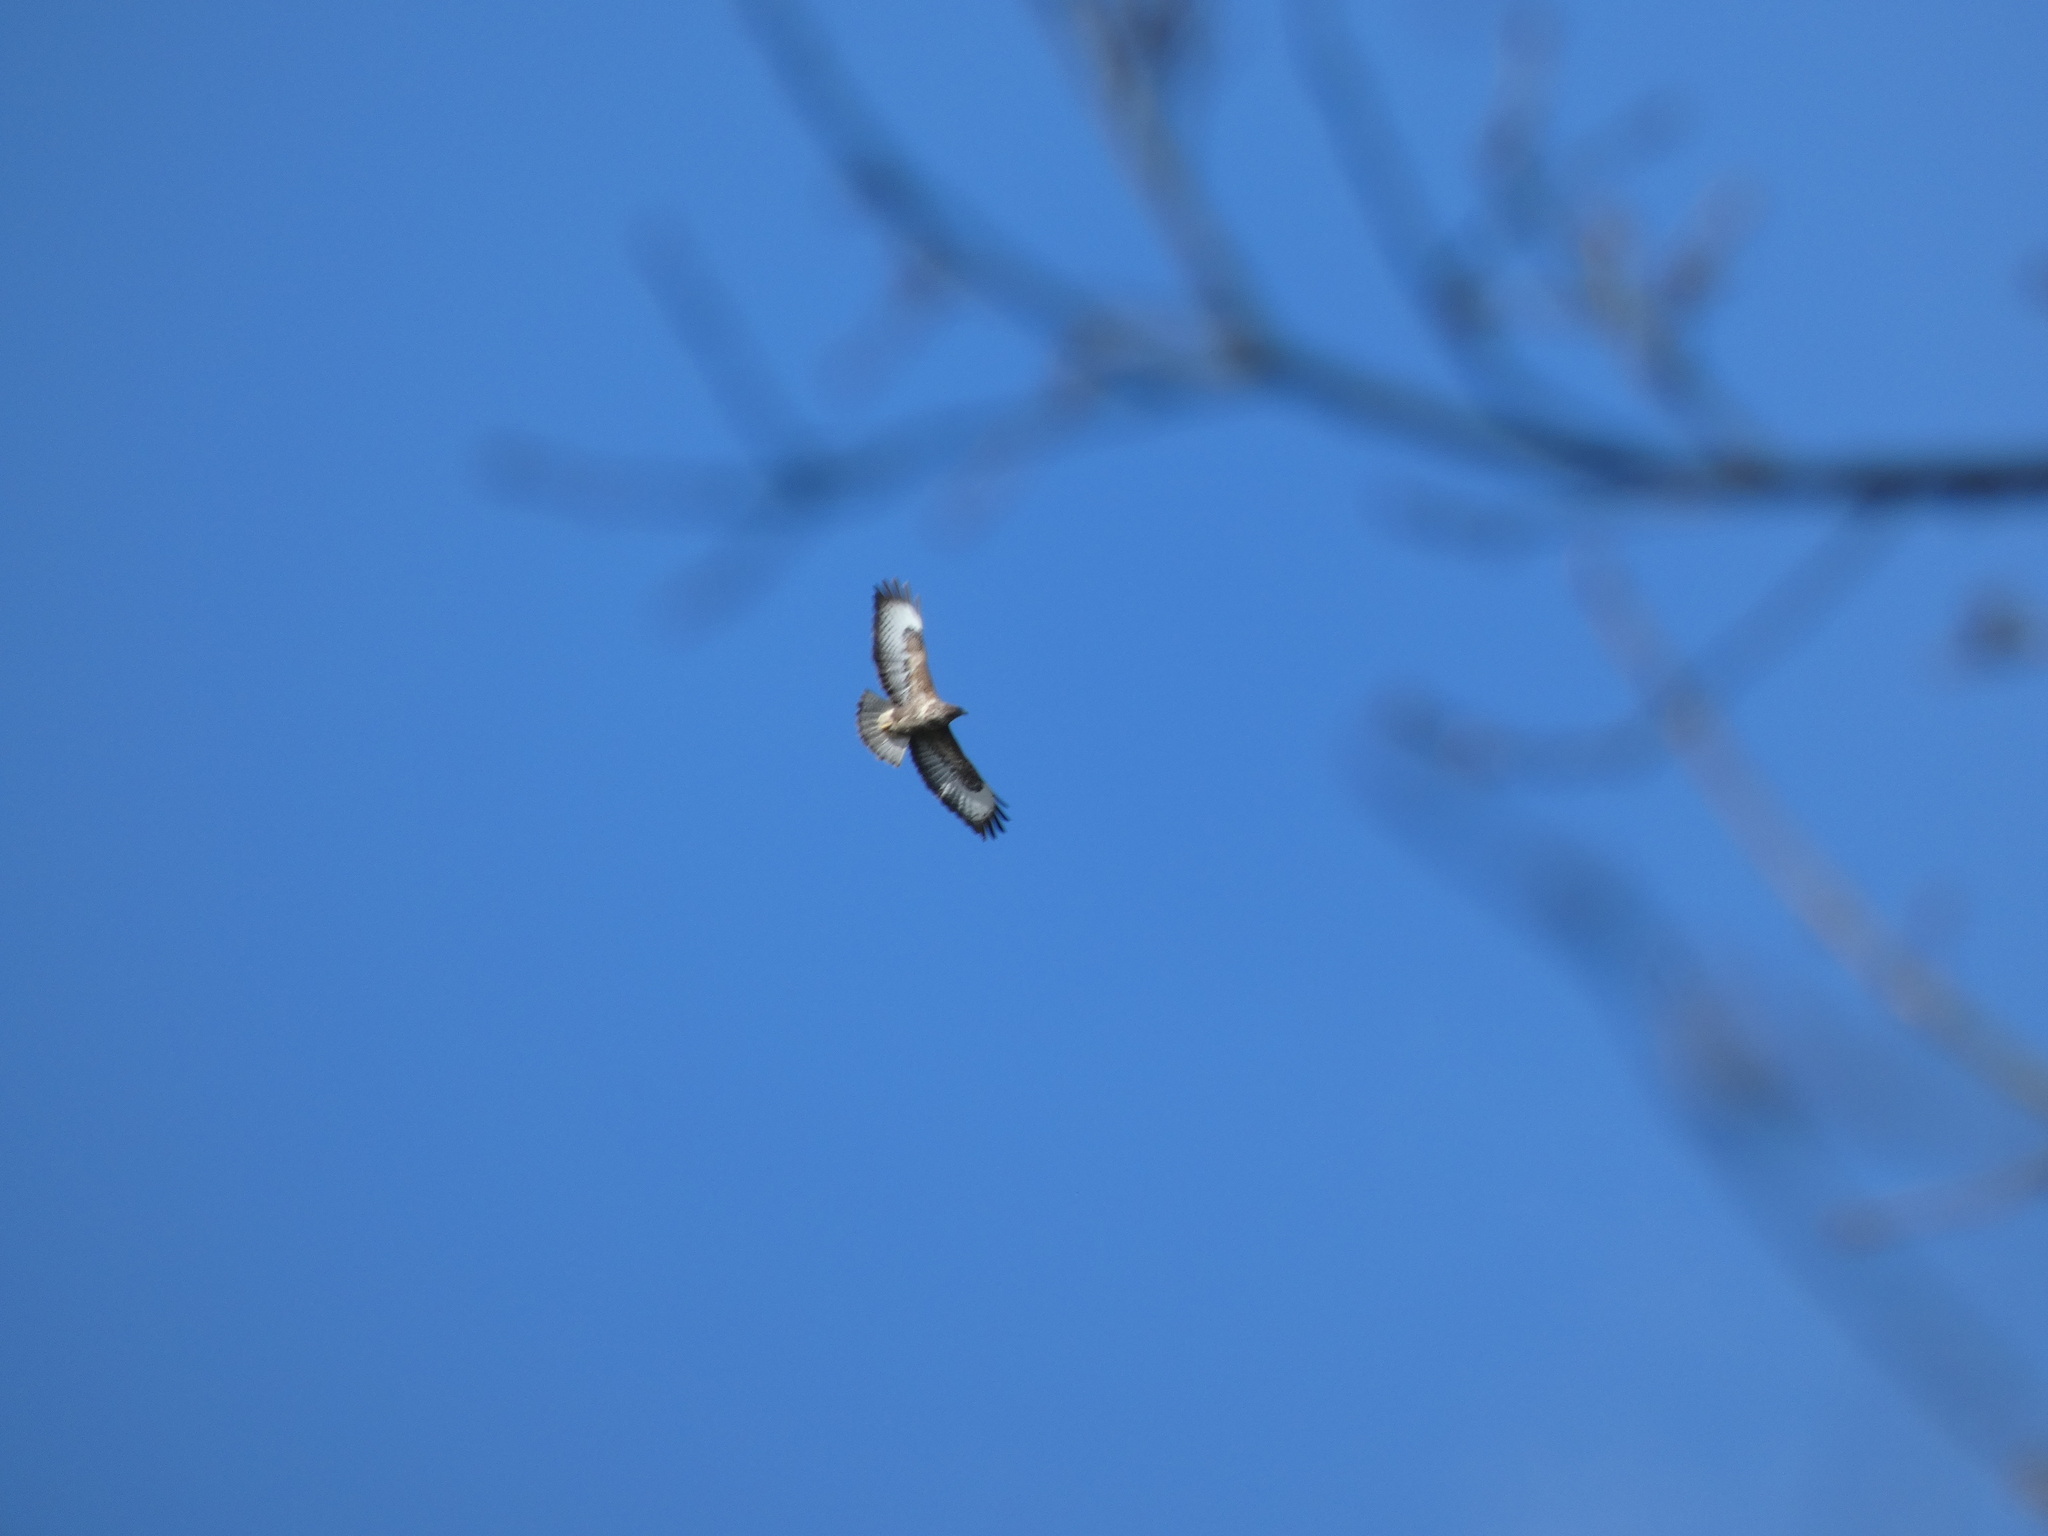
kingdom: Animalia
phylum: Chordata
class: Aves
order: Accipitriformes
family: Accipitridae
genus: Buteo
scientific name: Buteo buteo
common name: Common buzzard
